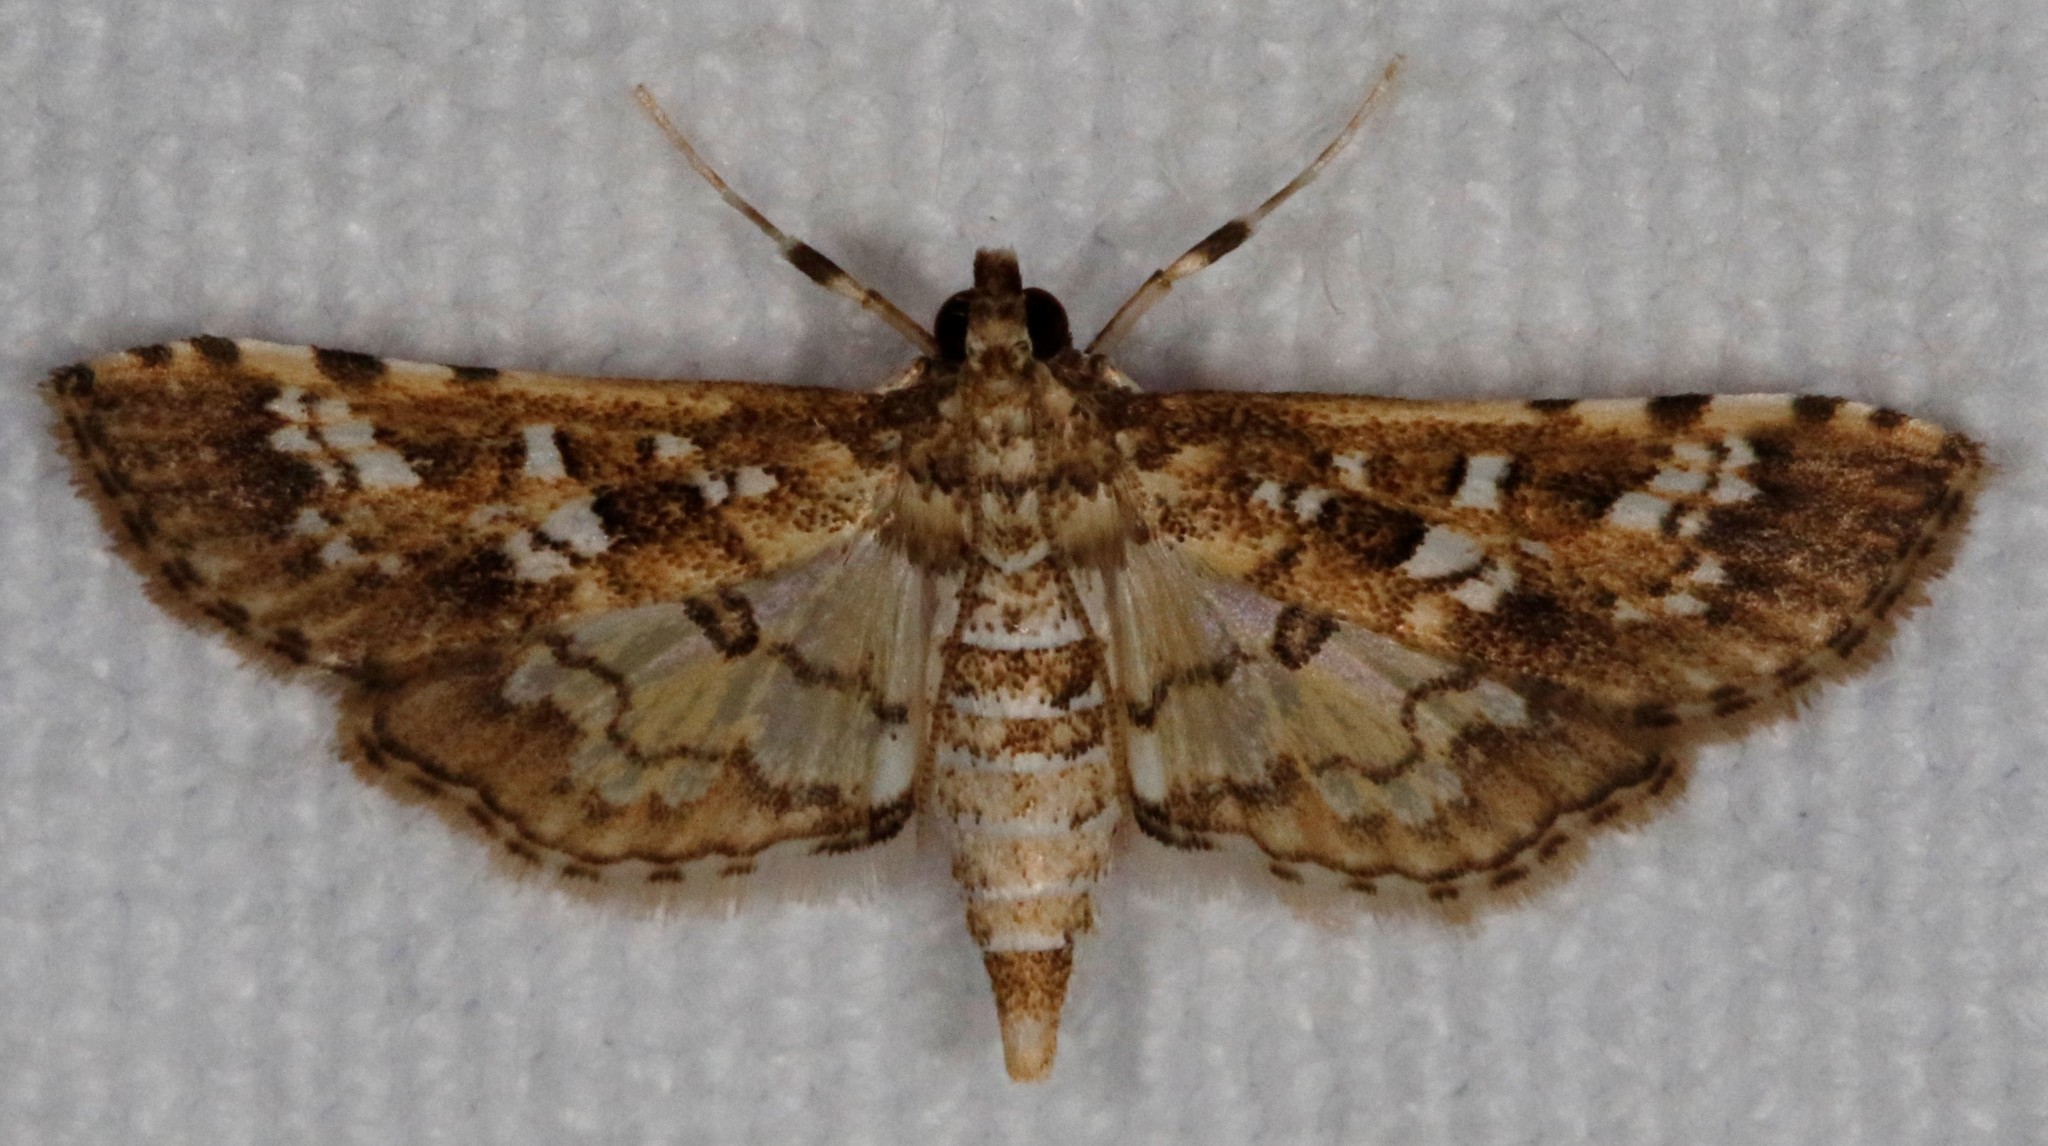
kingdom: Animalia
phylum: Arthropoda
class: Insecta
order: Lepidoptera
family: Crambidae
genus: Samea
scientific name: Samea multiplicalis
